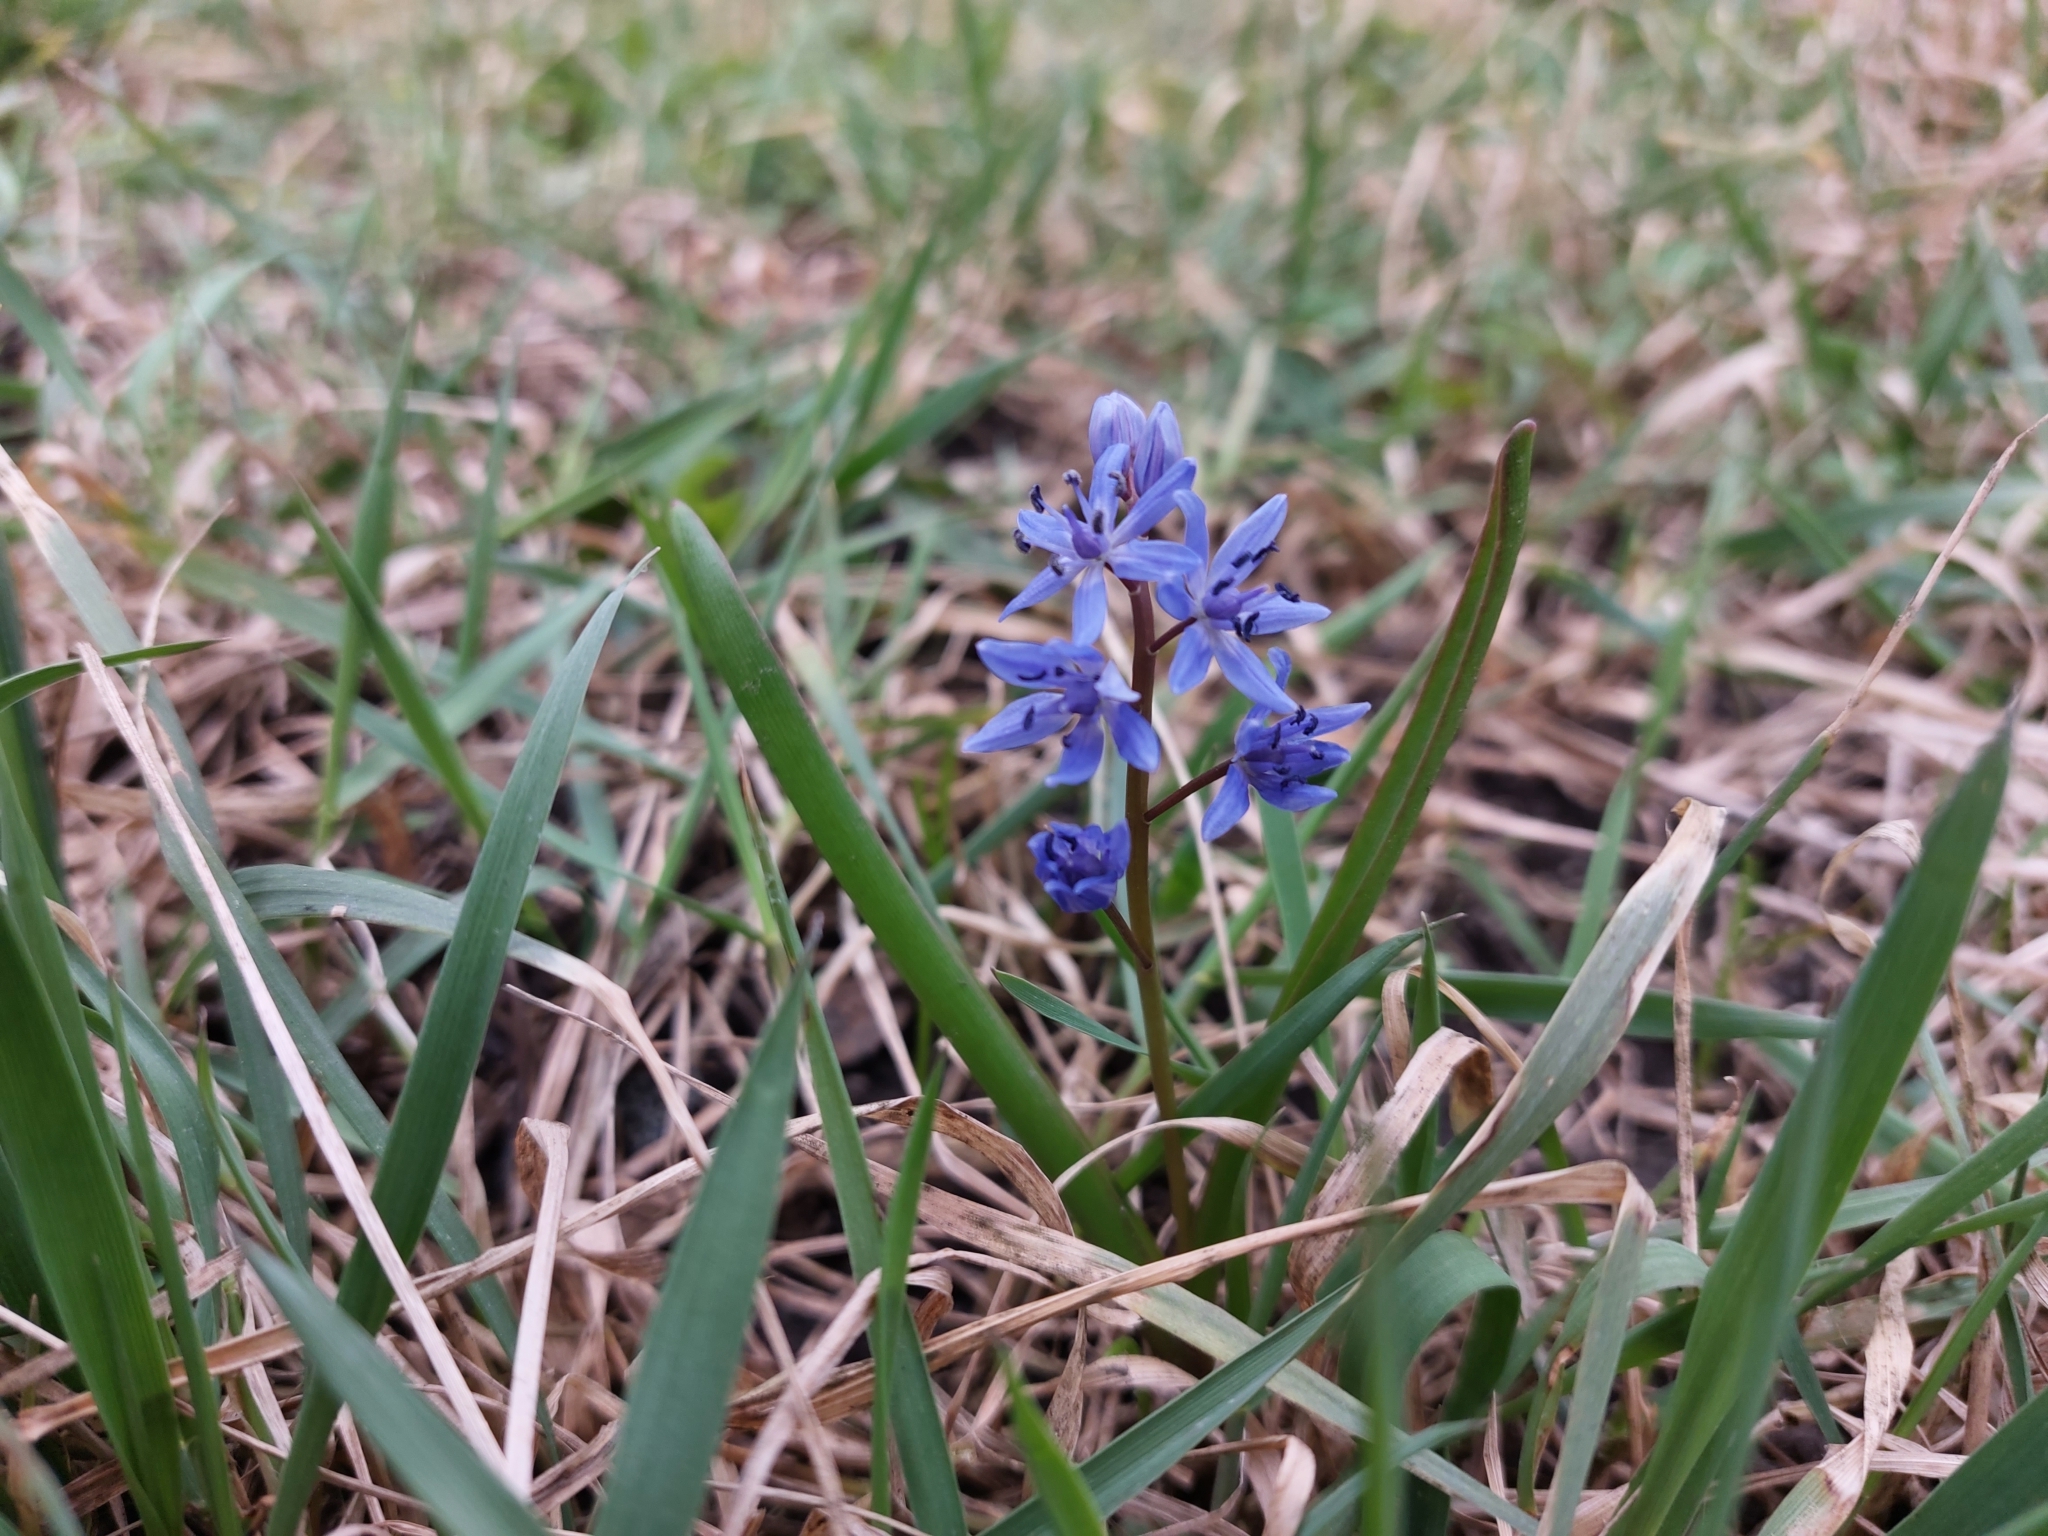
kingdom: Plantae
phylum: Tracheophyta
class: Liliopsida
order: Asparagales
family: Asparagaceae
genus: Scilla
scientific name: Scilla bifolia
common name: Alpine squill
